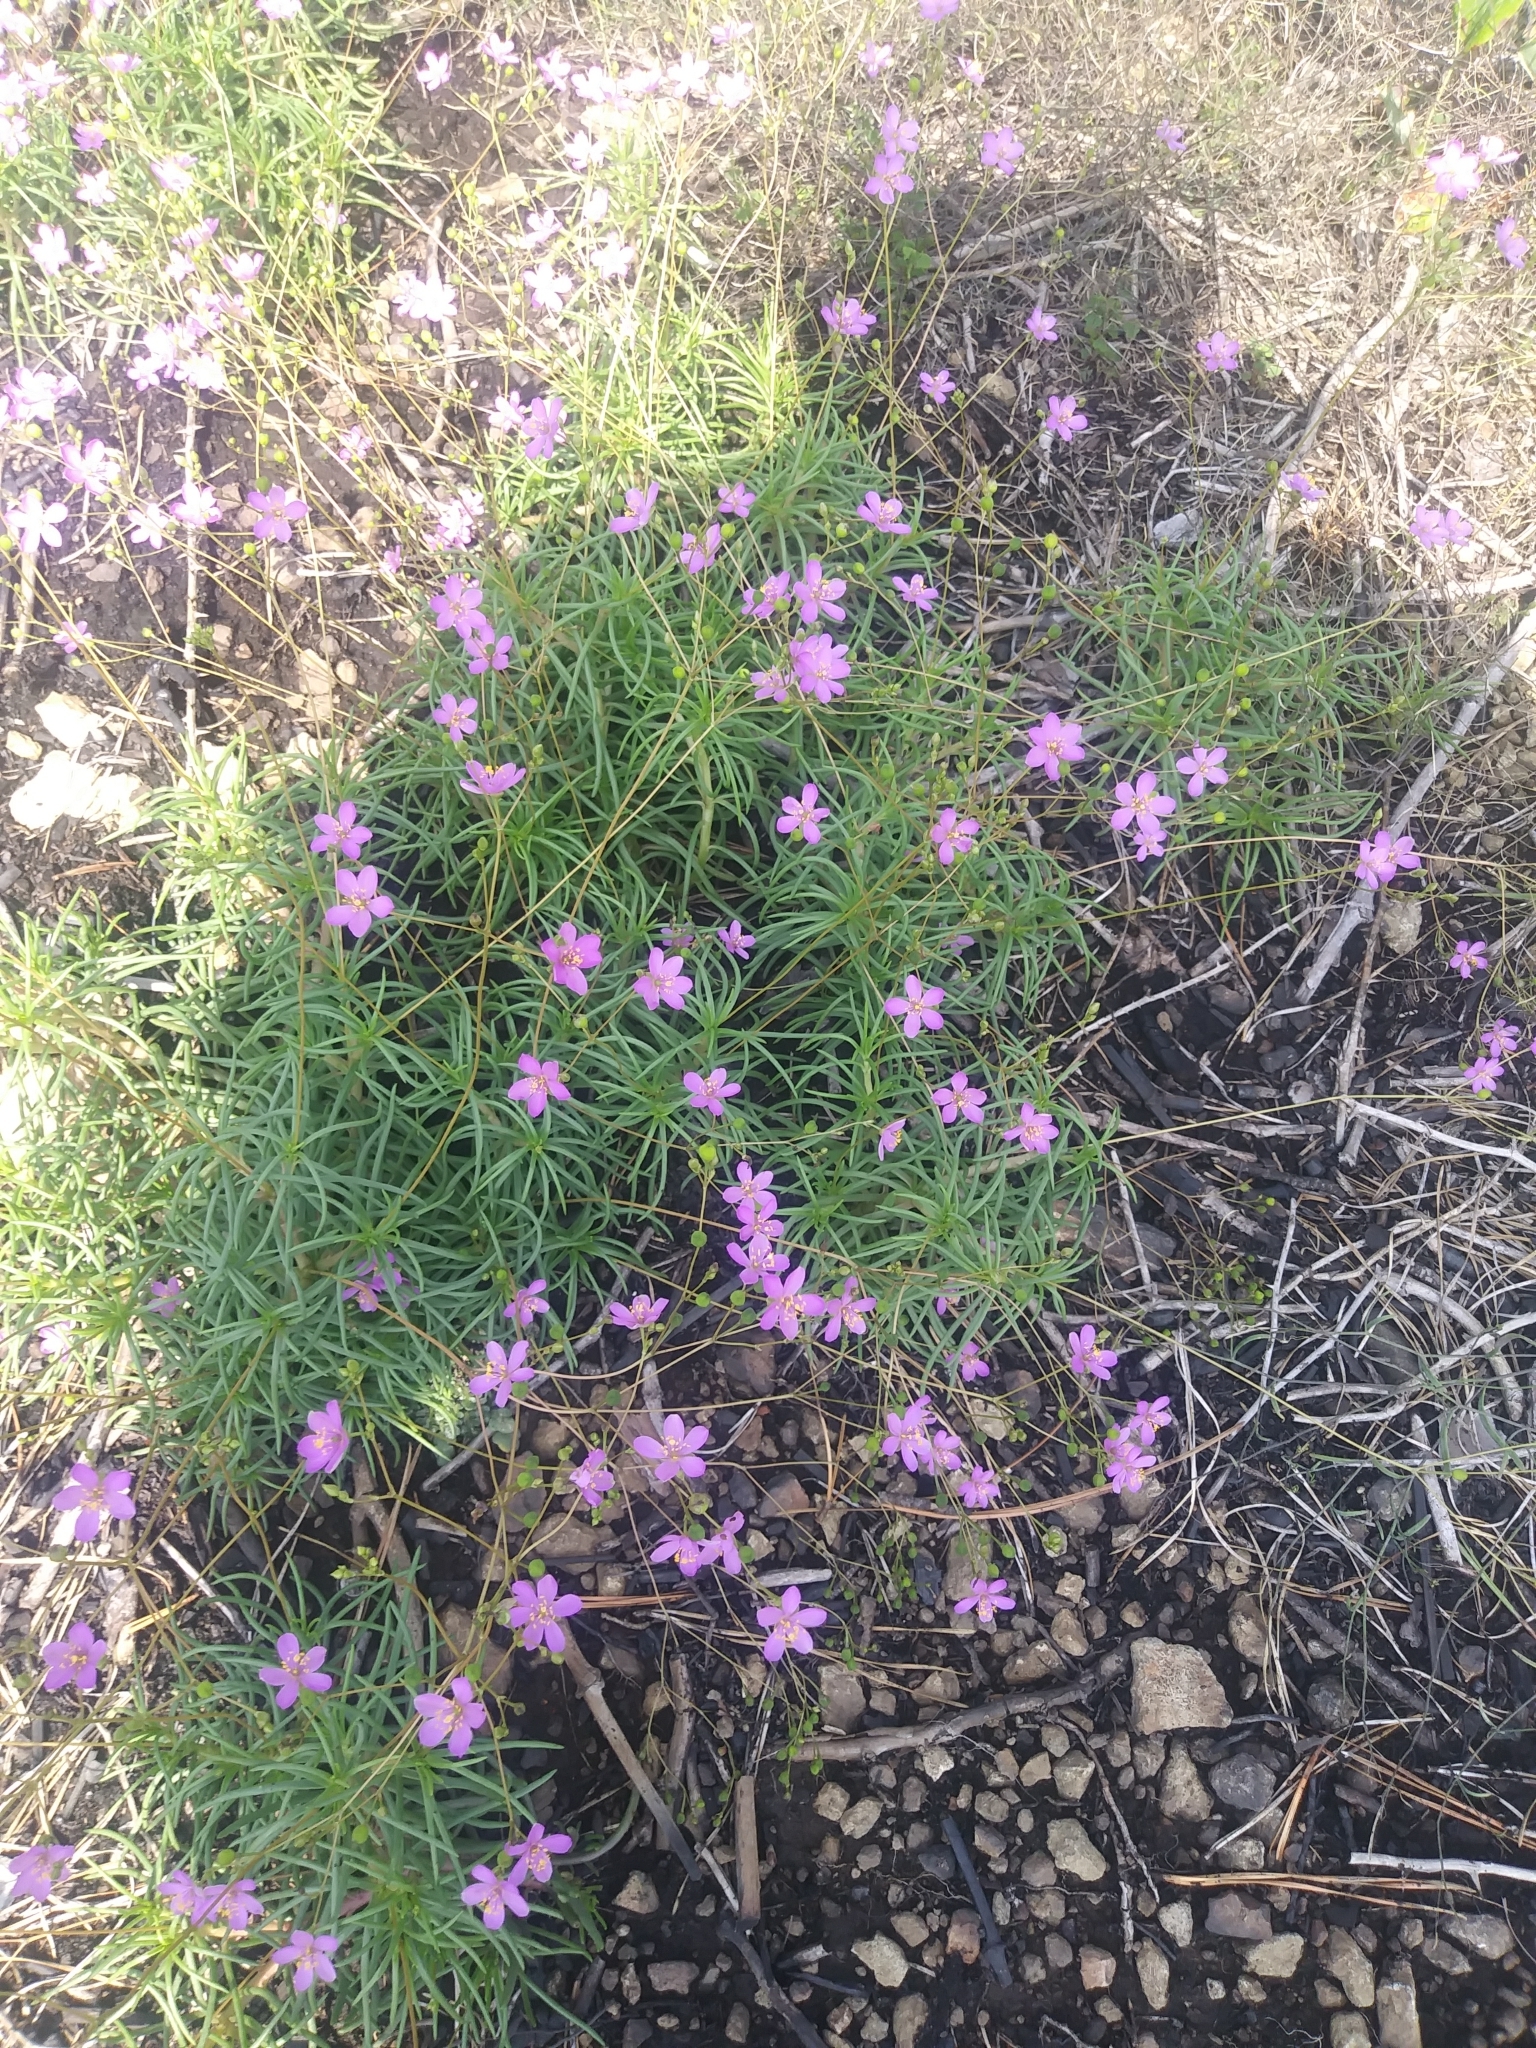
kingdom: Plantae
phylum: Tracheophyta
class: Magnoliopsida
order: Caryophyllales
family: Montiaceae
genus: Phemeranthus
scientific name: Phemeranthus teretifolius
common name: Quill fameflower
